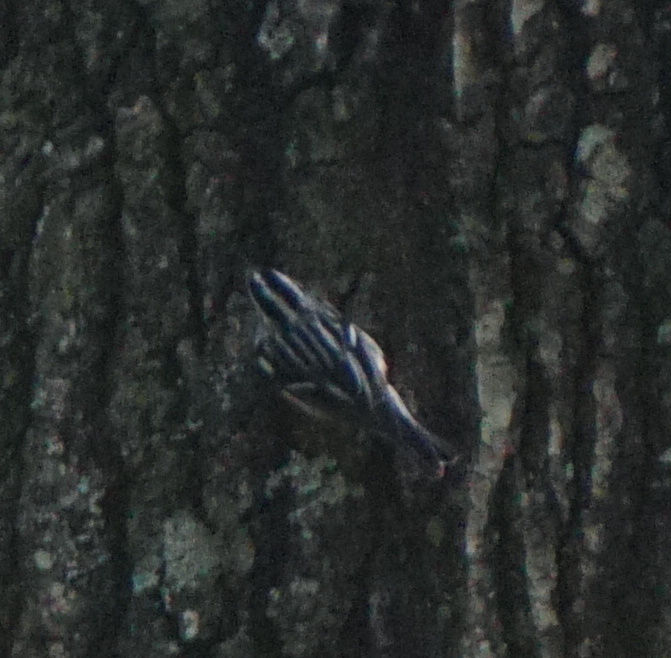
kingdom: Animalia
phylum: Chordata
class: Aves
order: Passeriformes
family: Parulidae
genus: Mniotilta
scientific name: Mniotilta varia
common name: Black-and-white warbler
